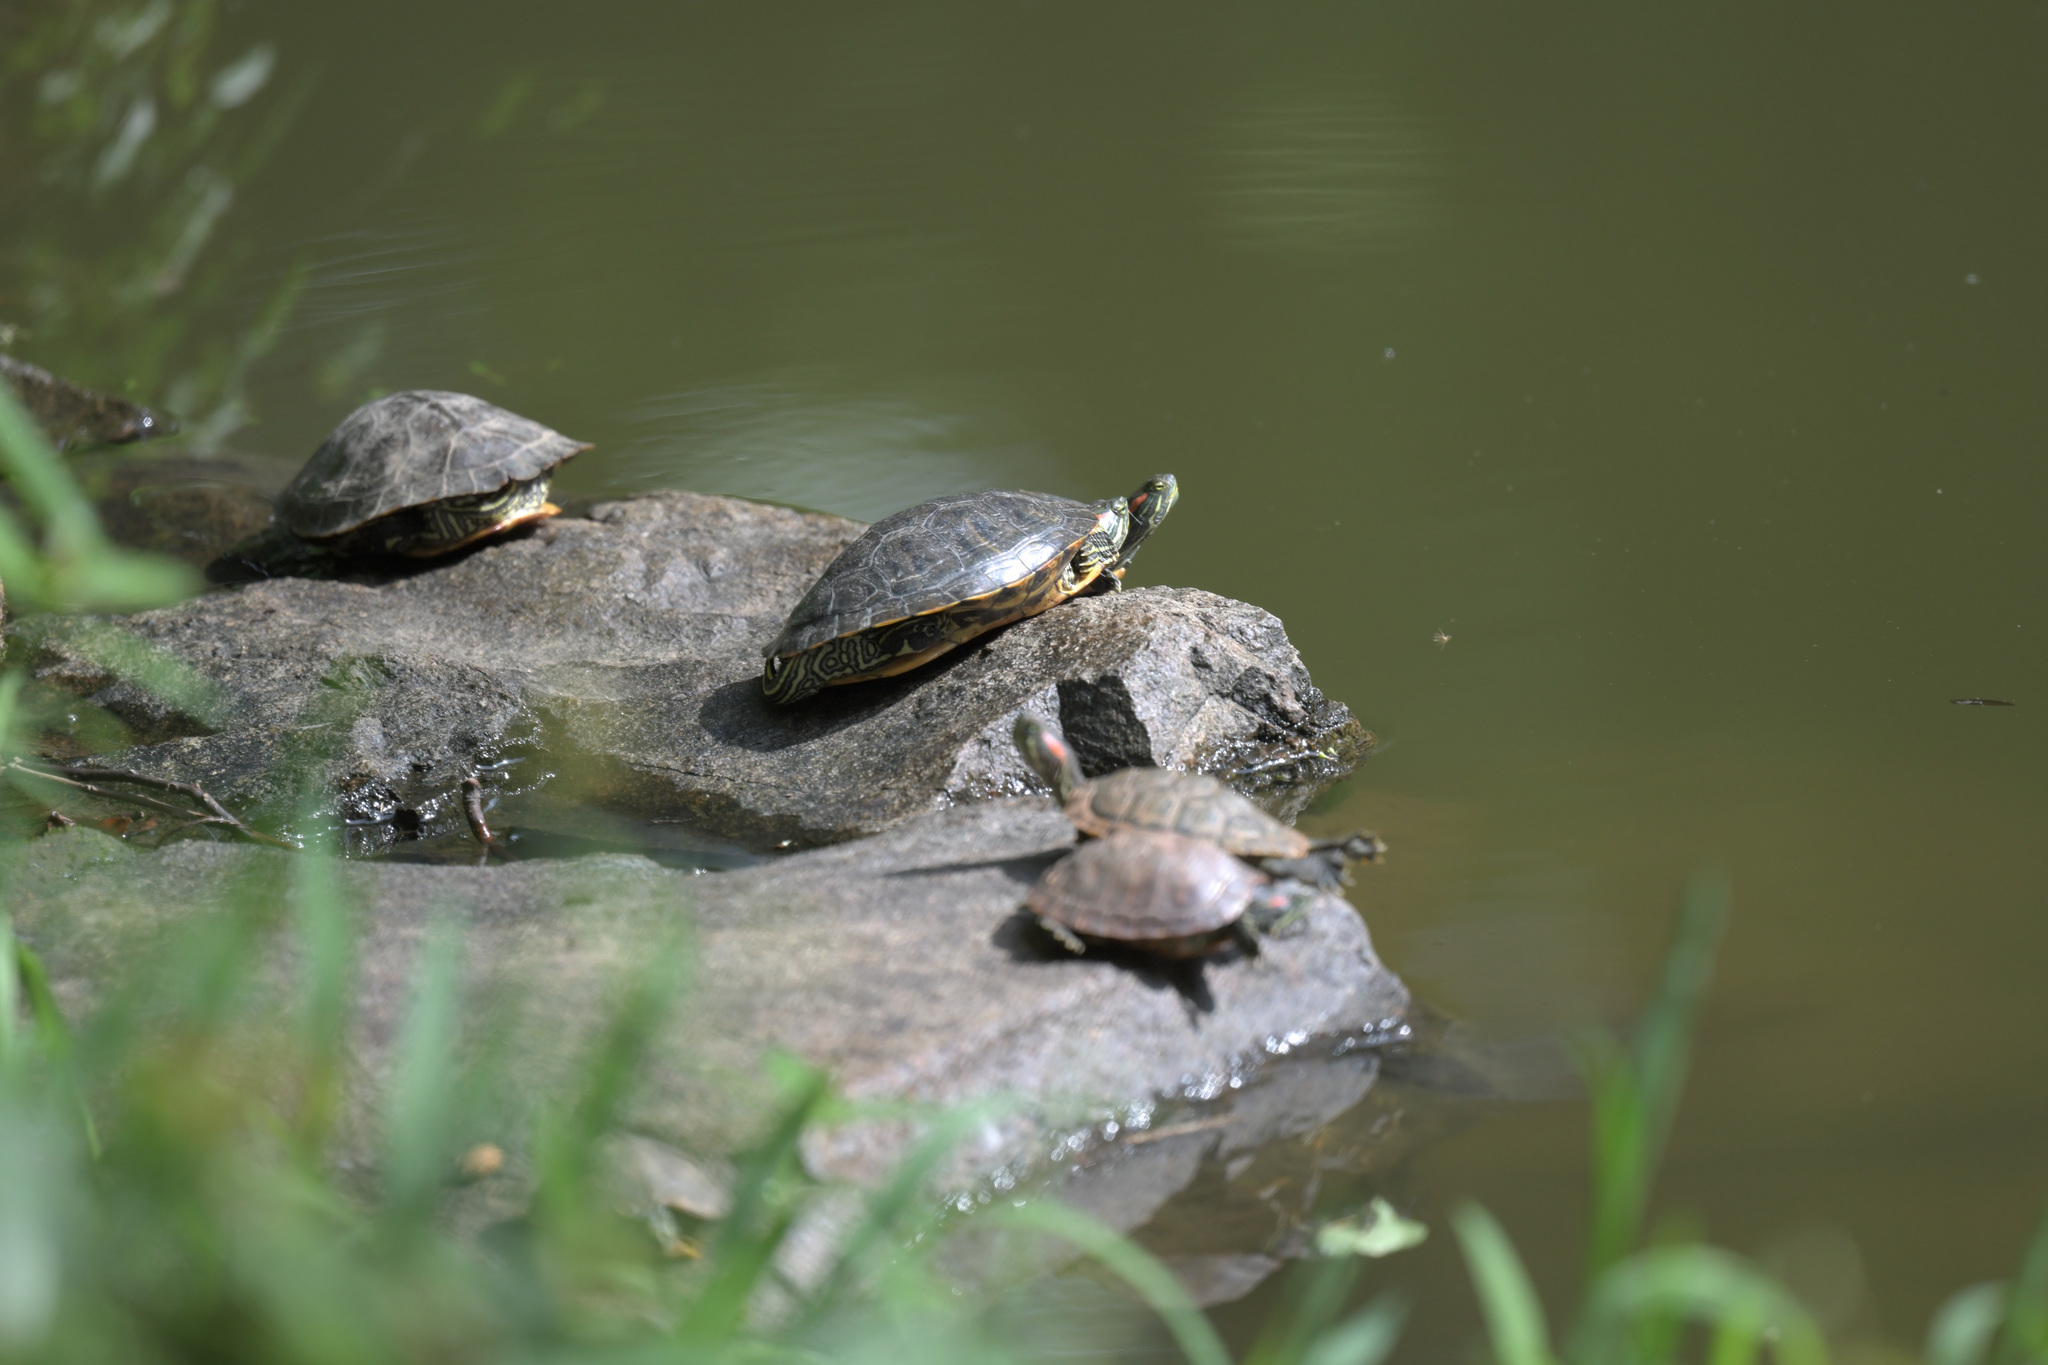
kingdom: Animalia
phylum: Chordata
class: Testudines
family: Emydidae
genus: Trachemys
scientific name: Trachemys scripta
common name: Slider
